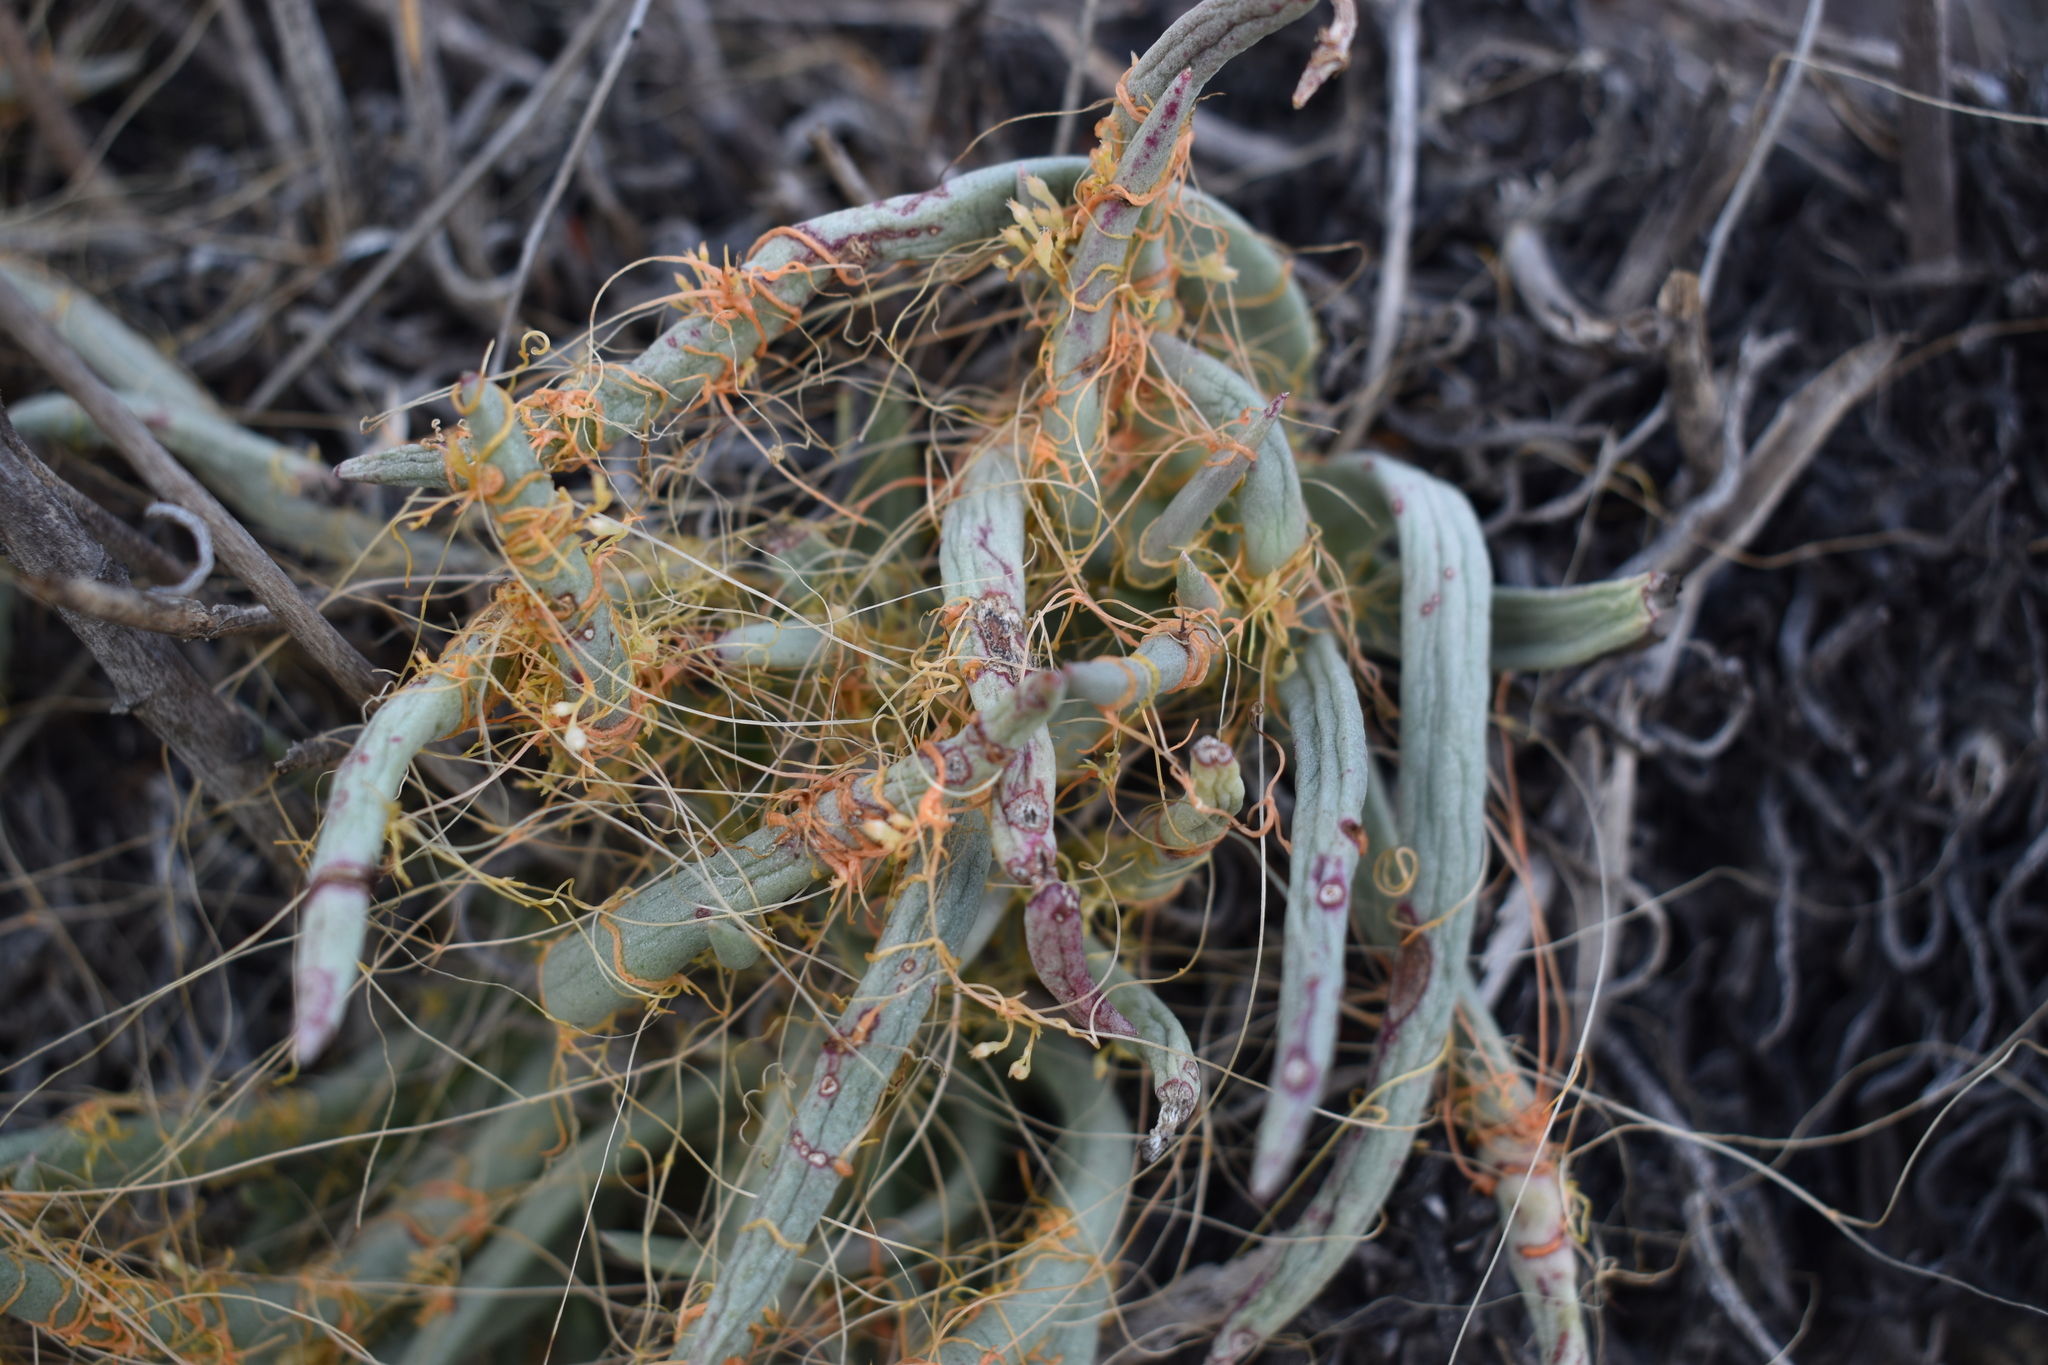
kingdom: Plantae
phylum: Tracheophyta
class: Magnoliopsida
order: Solanales
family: Convolvulaceae
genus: Cuscuta
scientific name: Cuscuta californica
